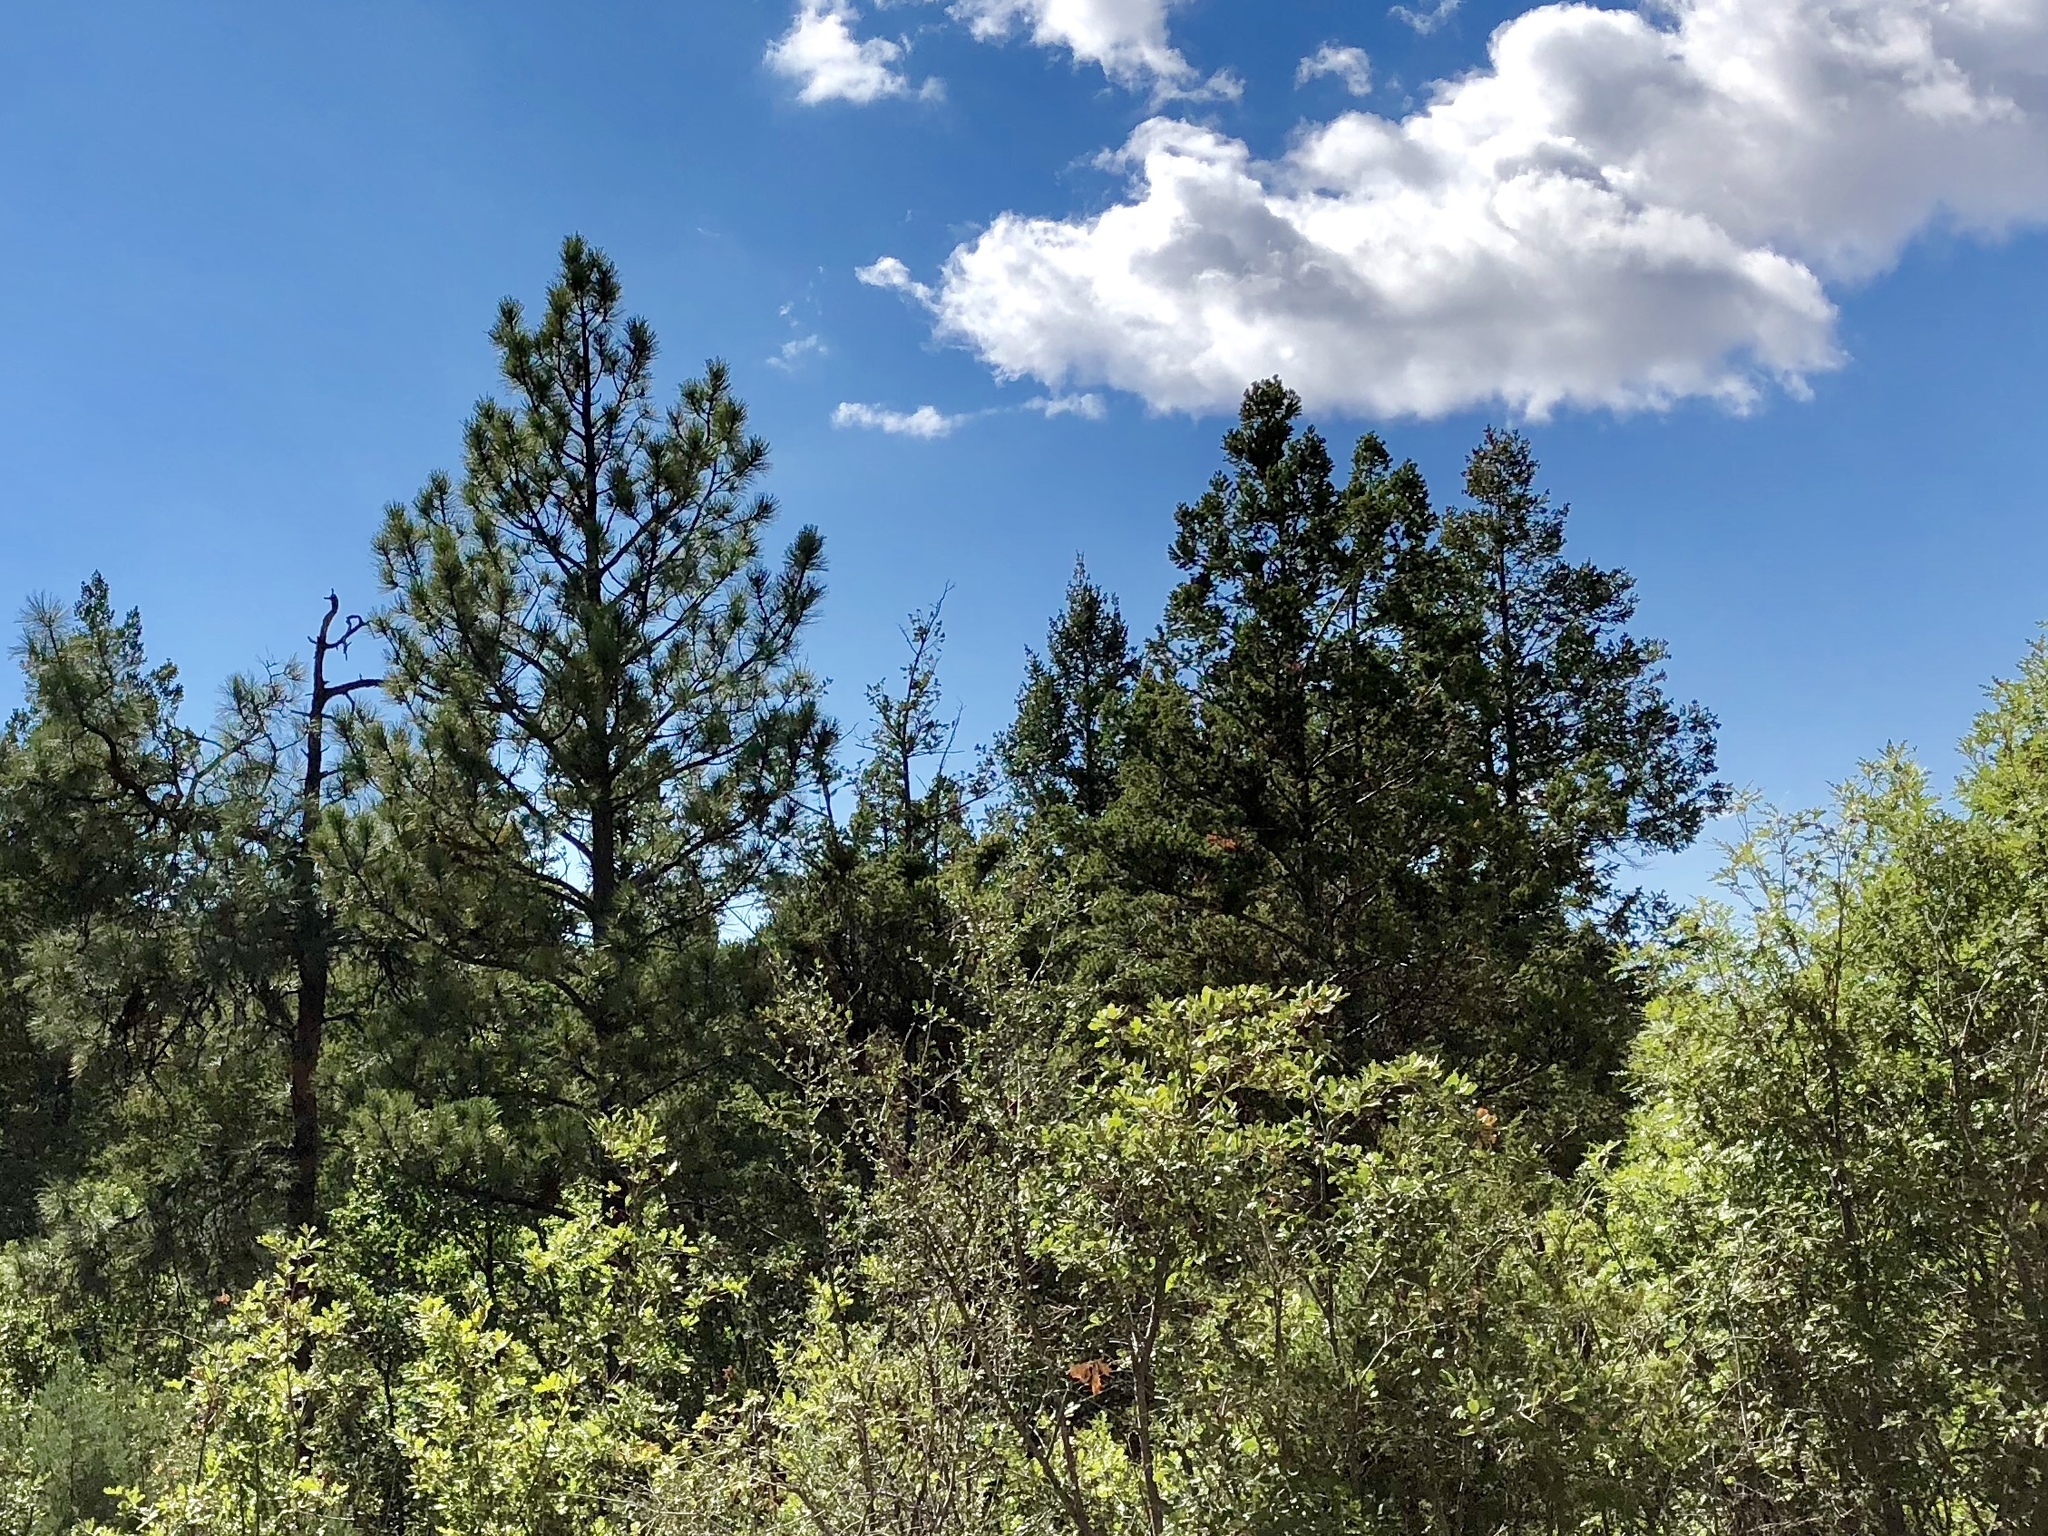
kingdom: Plantae
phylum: Tracheophyta
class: Pinopsida
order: Pinales
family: Pinaceae
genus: Pinus
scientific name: Pinus ponderosa
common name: Western yellow-pine
